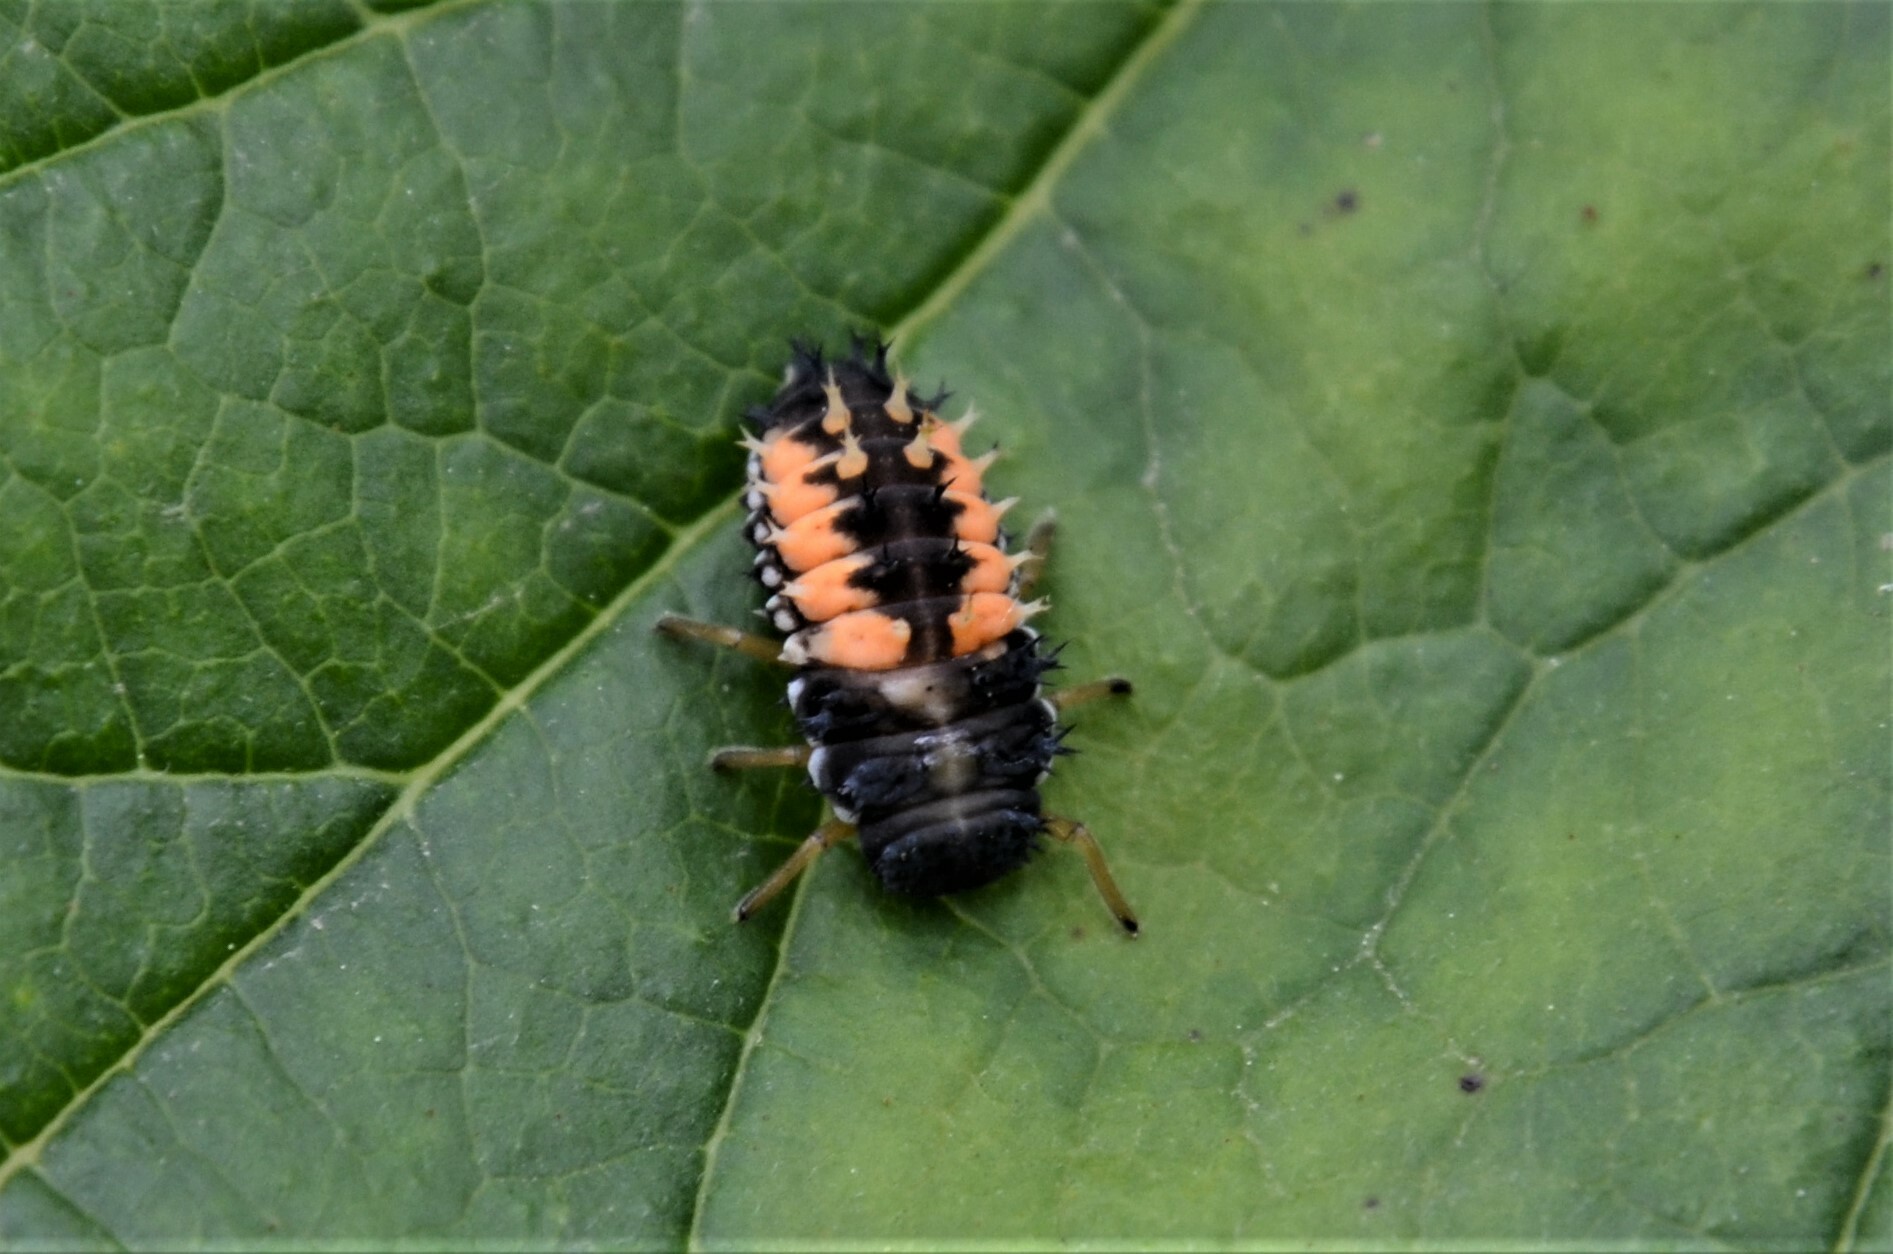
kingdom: Animalia
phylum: Arthropoda
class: Insecta
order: Coleoptera
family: Coccinellidae
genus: Harmonia
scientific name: Harmonia axyridis
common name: Harlequin ladybird
